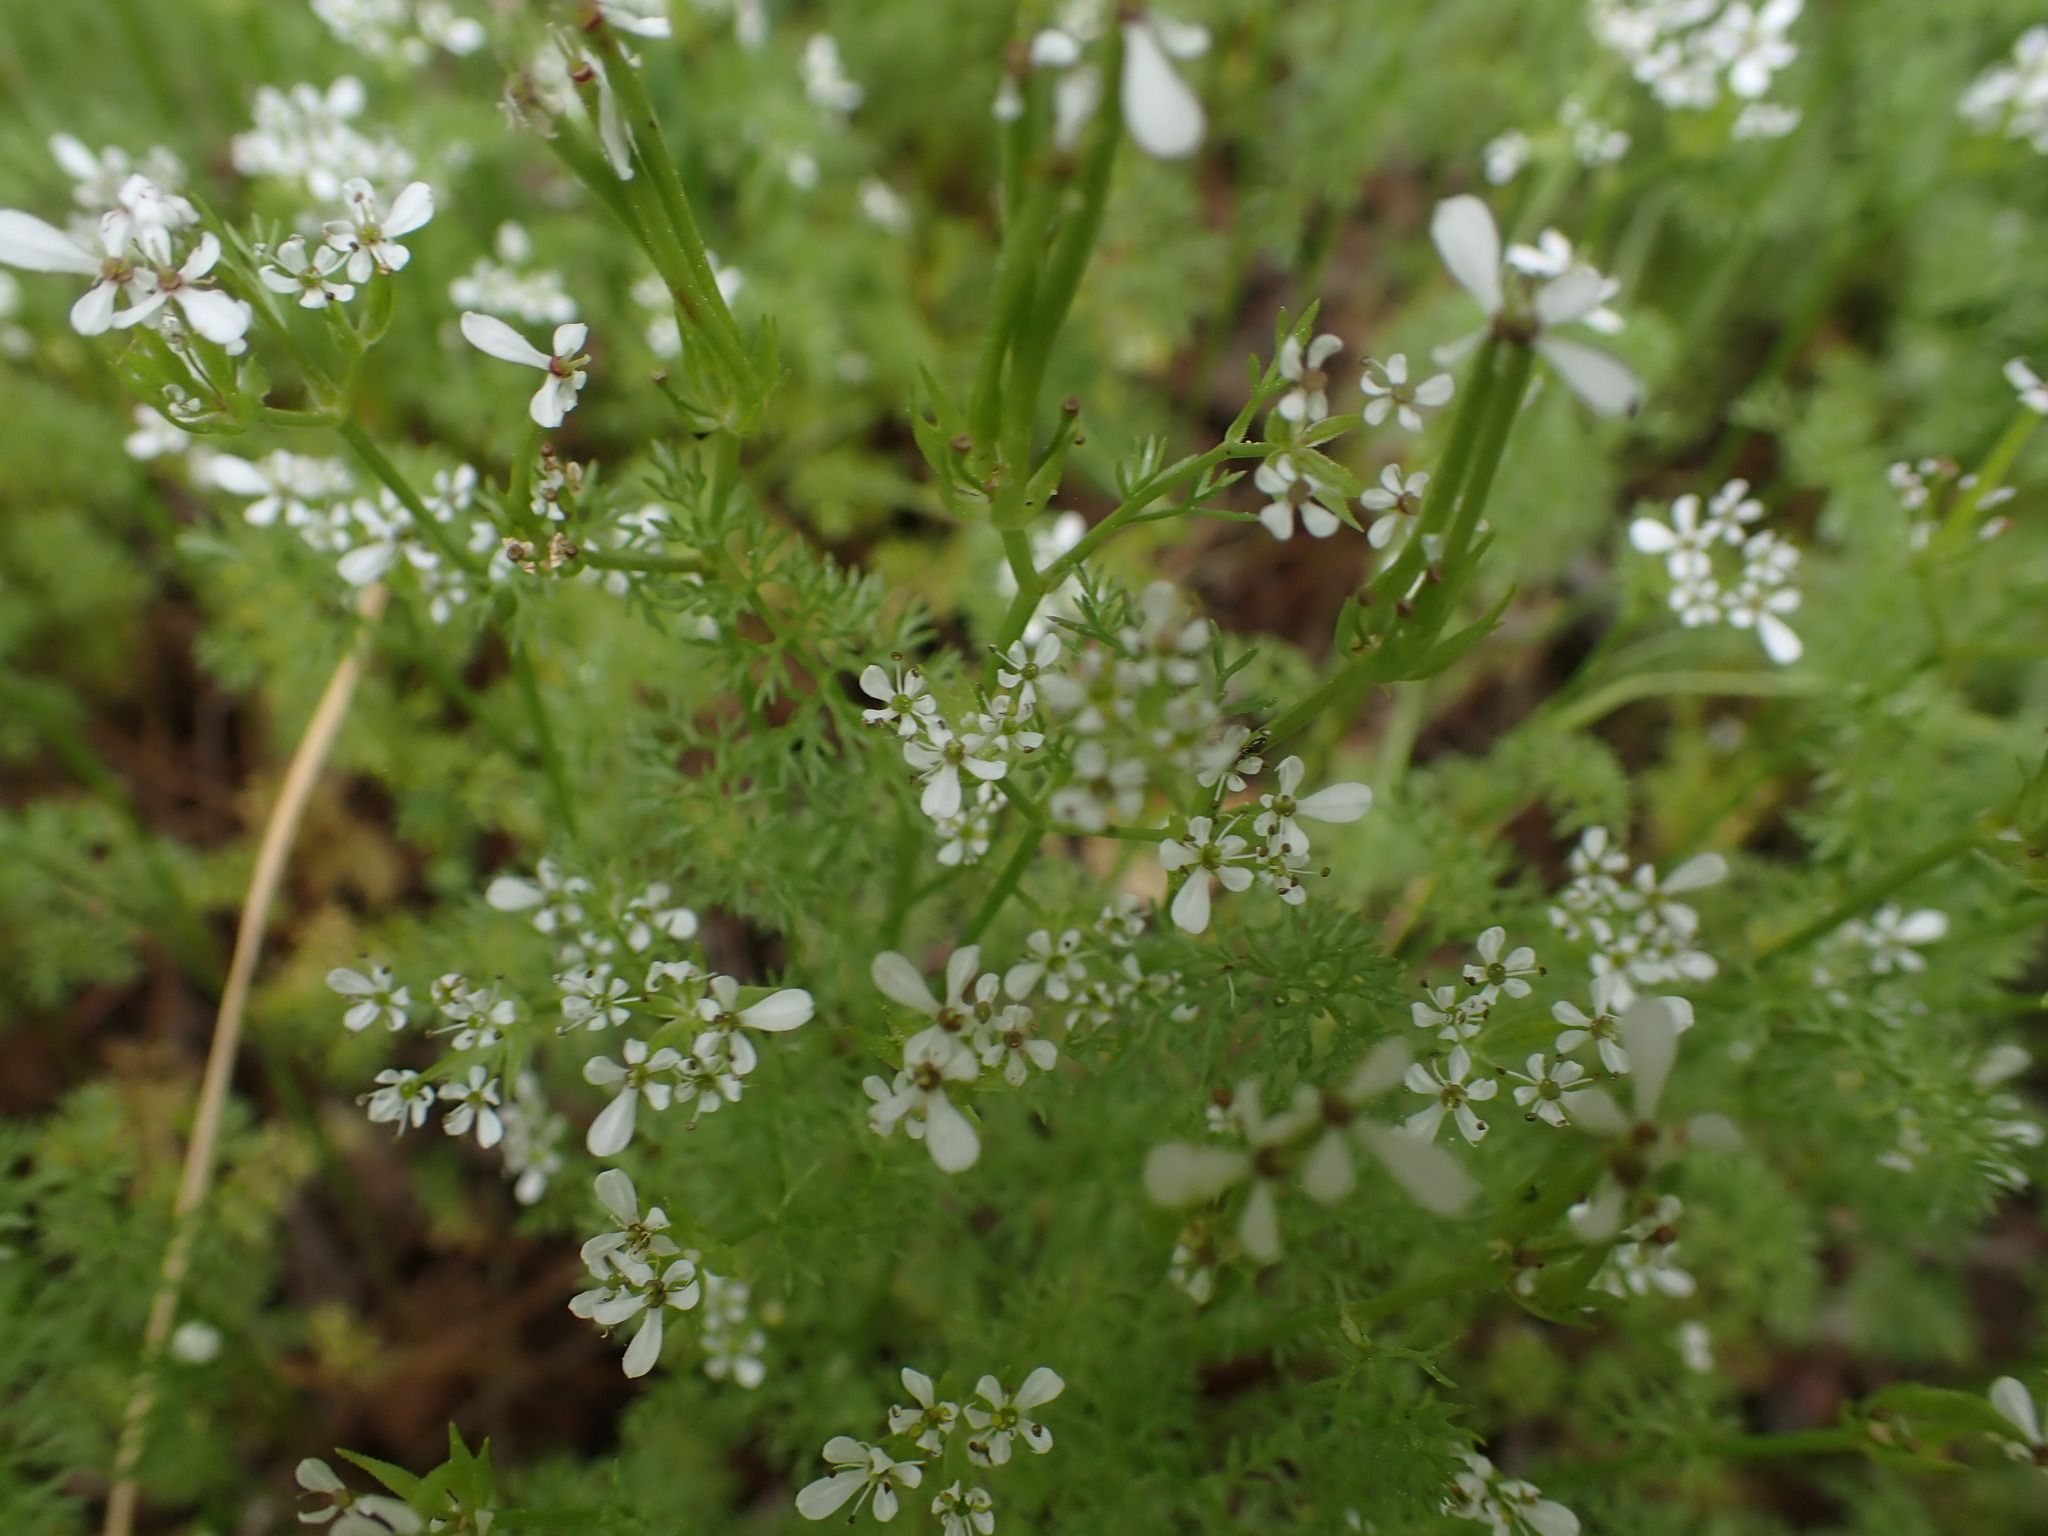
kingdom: Plantae
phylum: Tracheophyta
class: Magnoliopsida
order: Apiales
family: Apiaceae
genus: Scandix
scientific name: Scandix pecten-veneris
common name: Shepherd's-needle
